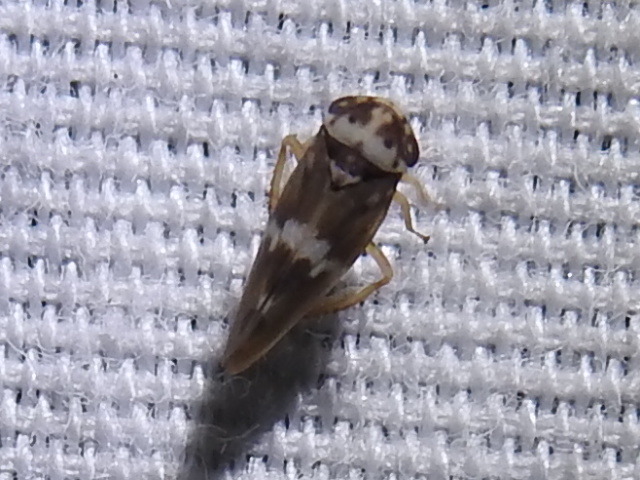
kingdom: Animalia
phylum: Arthropoda
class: Insecta
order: Hemiptera
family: Cicadellidae
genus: Agalliopsis
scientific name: Agalliopsis cervina
